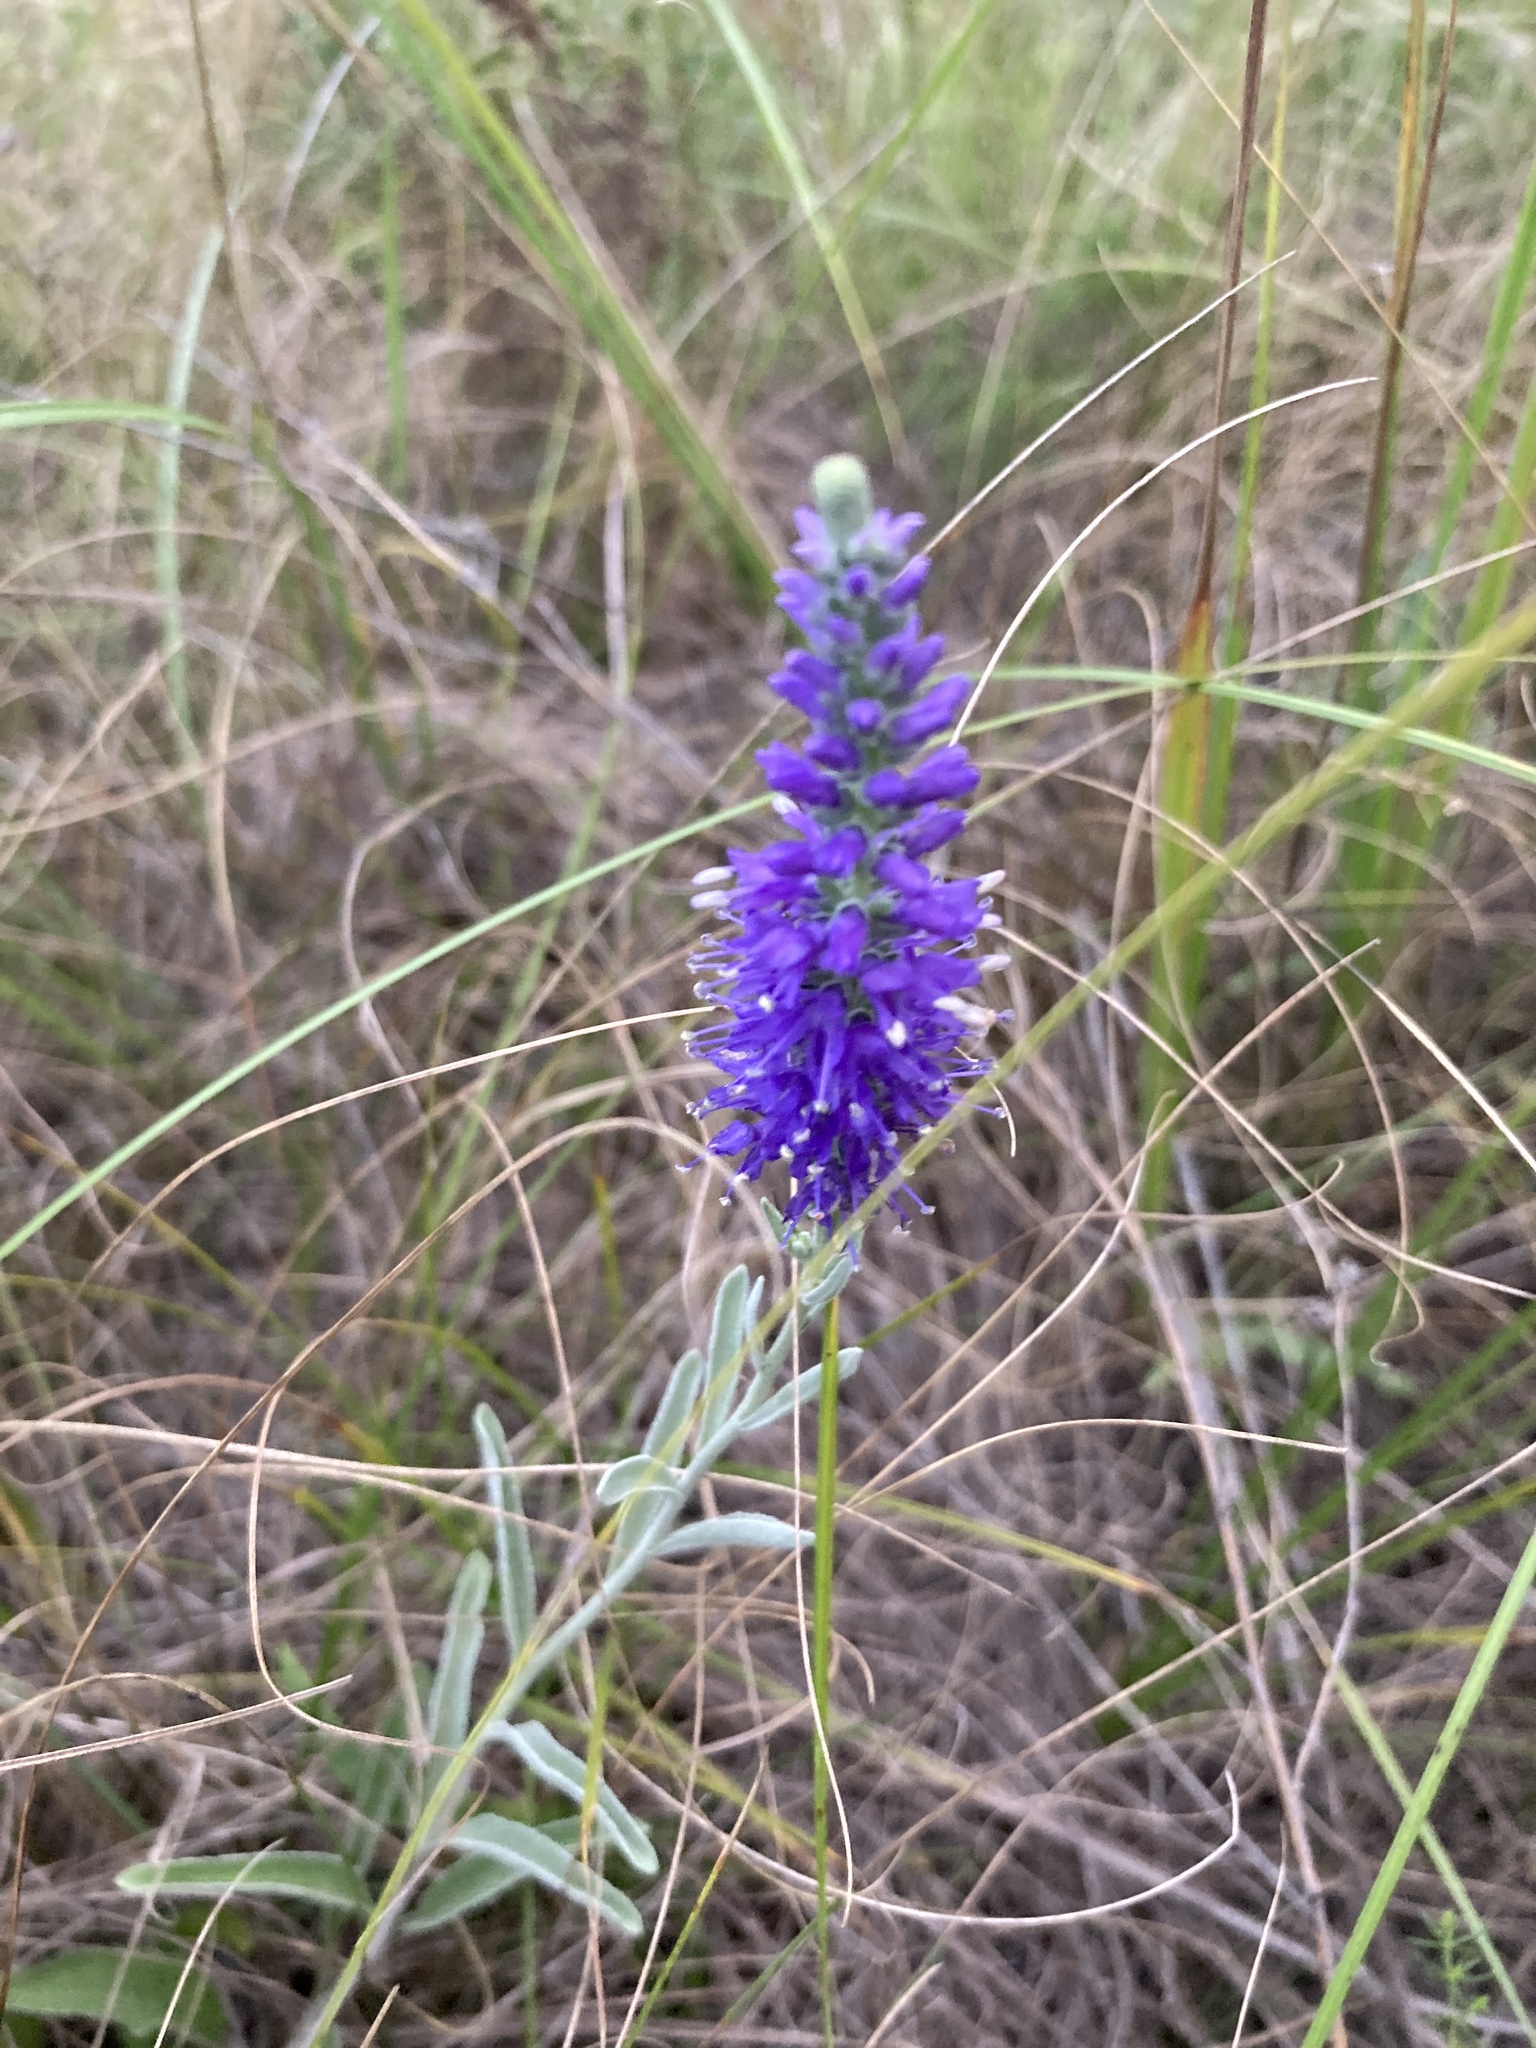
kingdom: Plantae
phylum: Tracheophyta
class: Magnoliopsida
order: Lamiales
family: Plantaginaceae
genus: Veronica
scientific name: Veronica incana
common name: Silver speedwell
